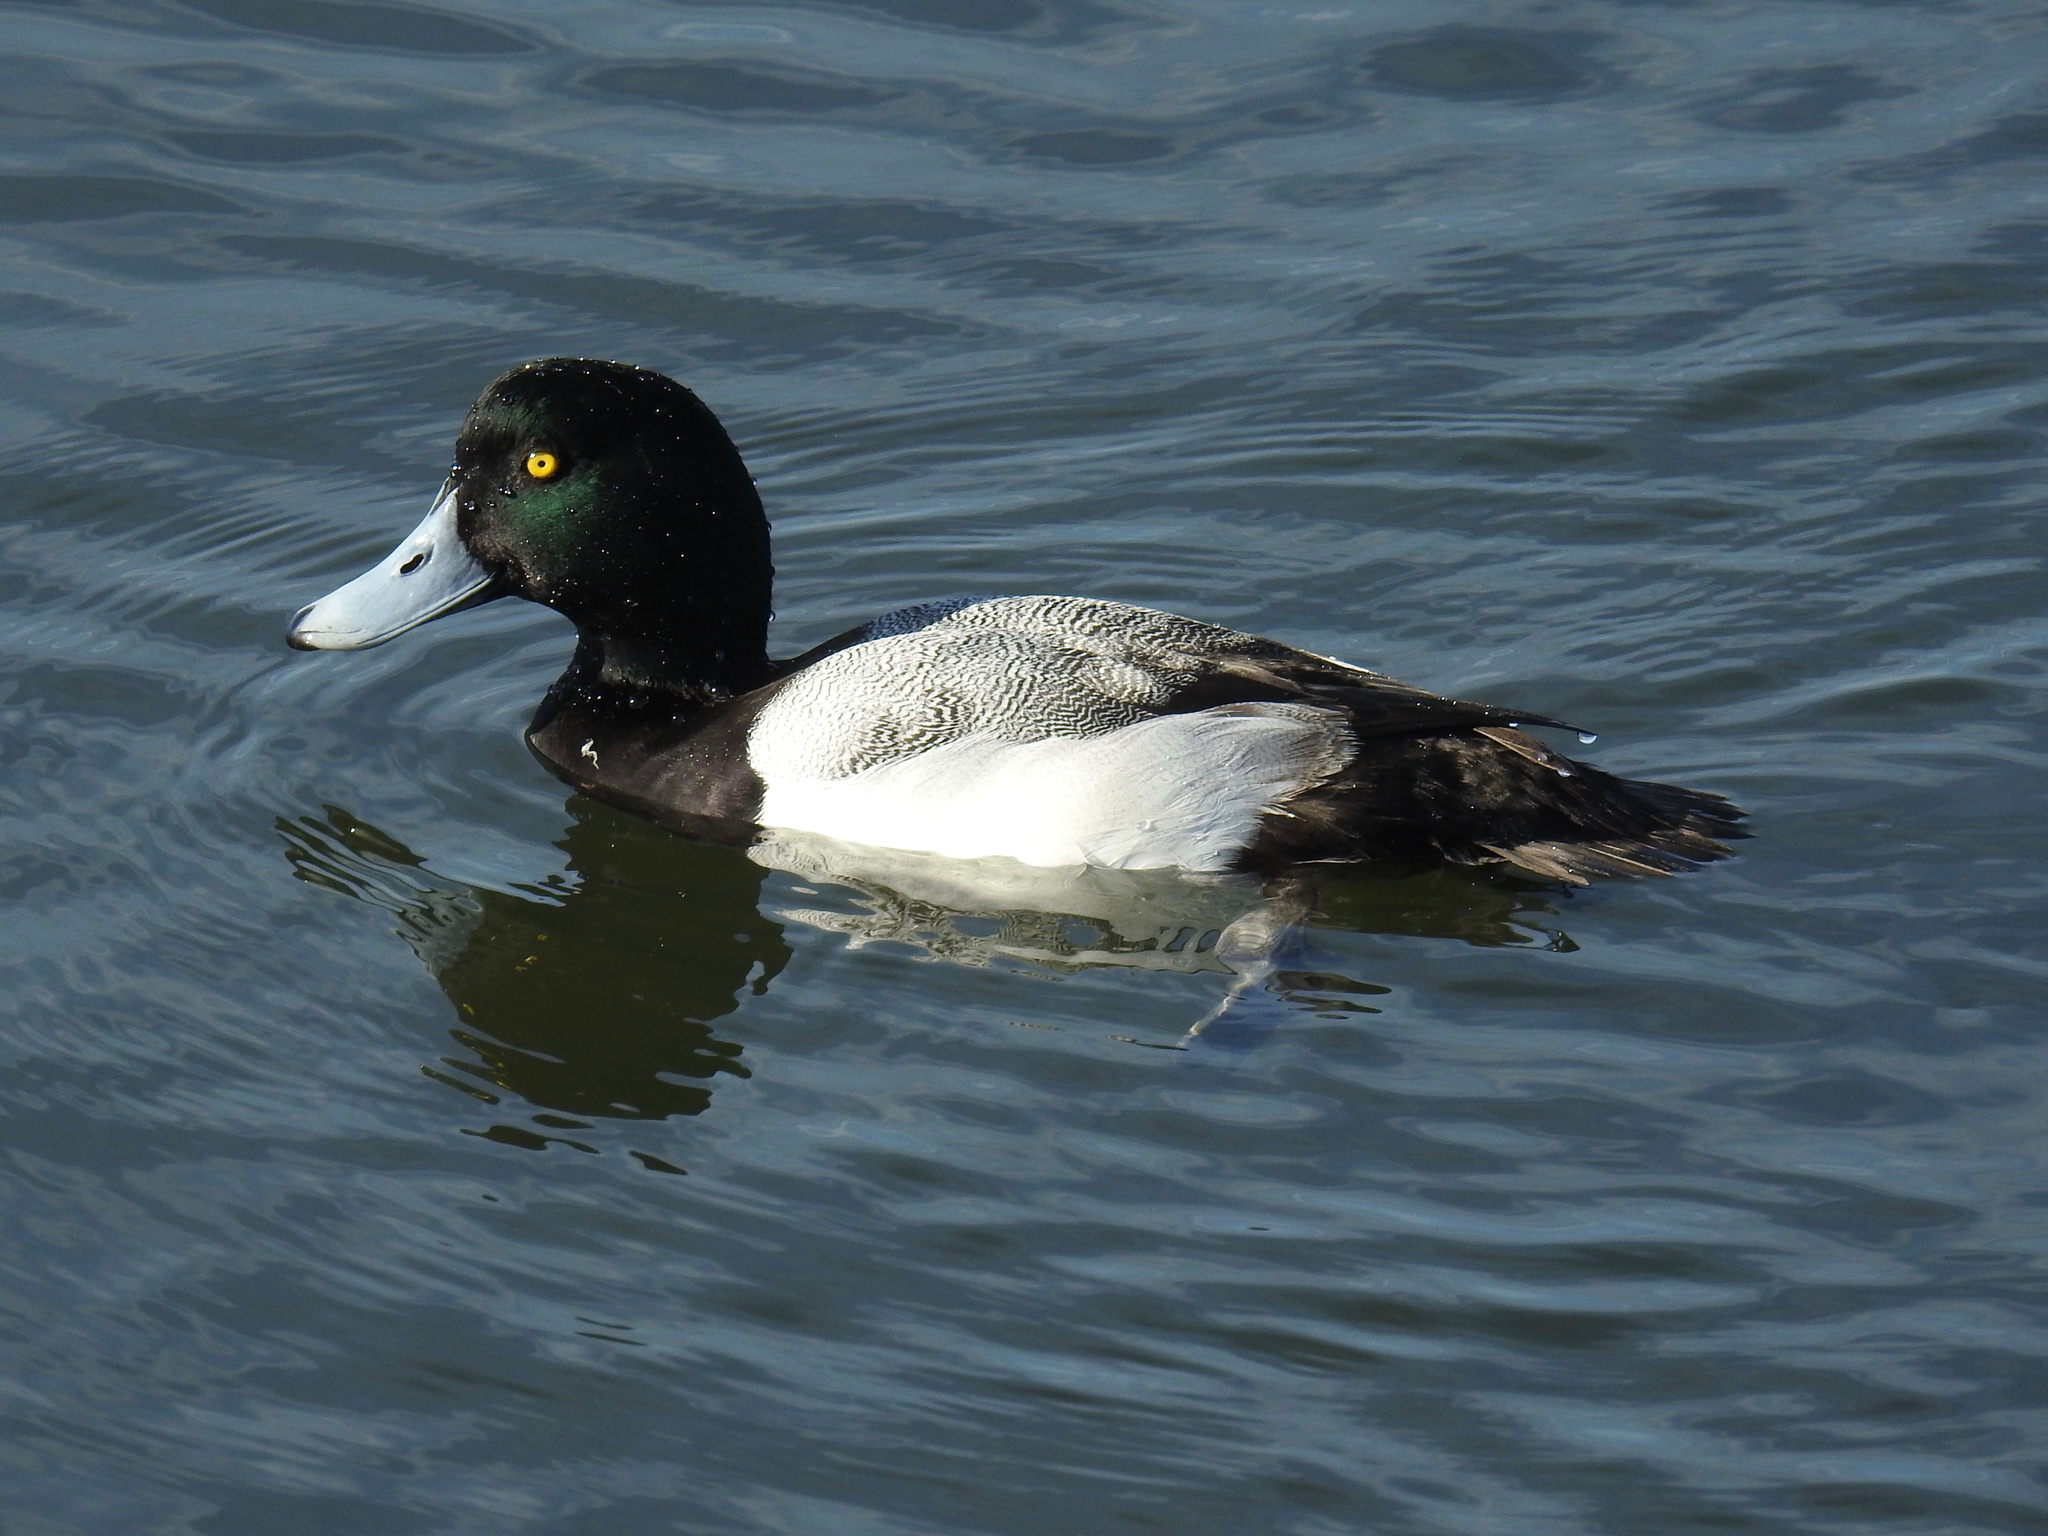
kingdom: Animalia
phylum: Chordata
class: Aves
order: Anseriformes
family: Anatidae
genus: Aythya
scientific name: Aythya marila
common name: Greater scaup
